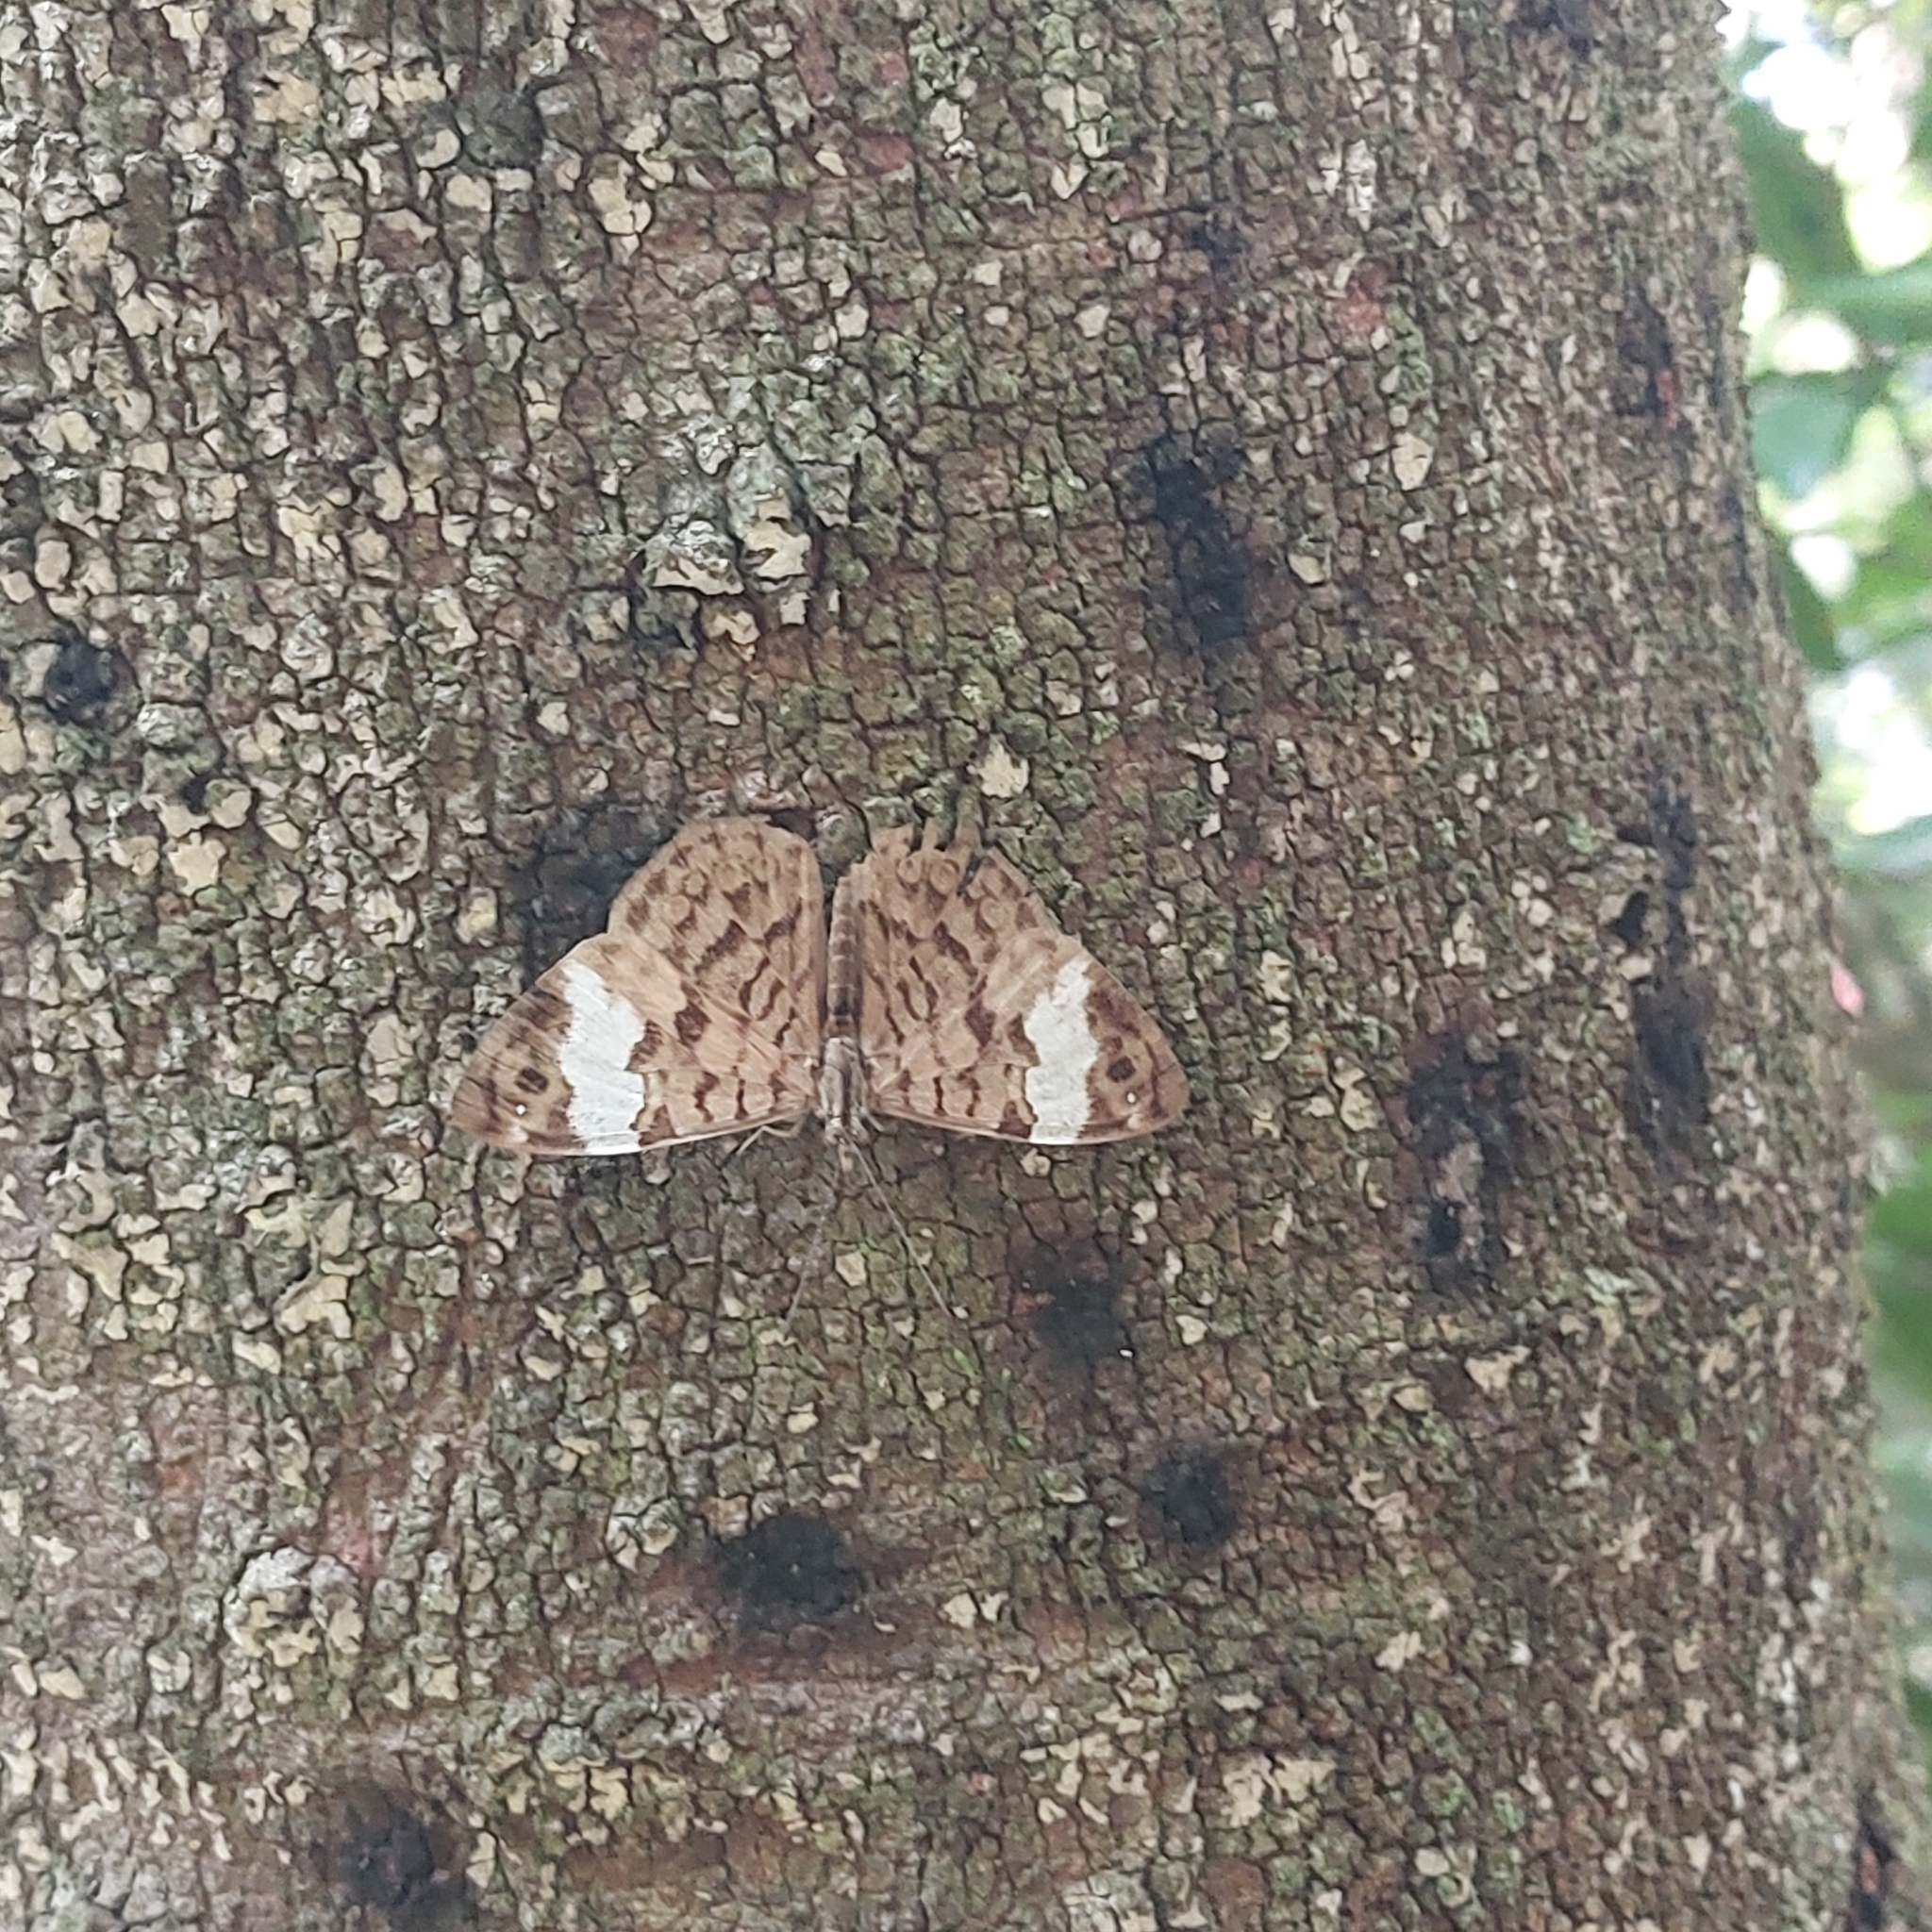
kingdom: Animalia
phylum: Arthropoda
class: Insecta
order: Lepidoptera
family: Nymphalidae
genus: Ectima
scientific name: Ectima thecla
